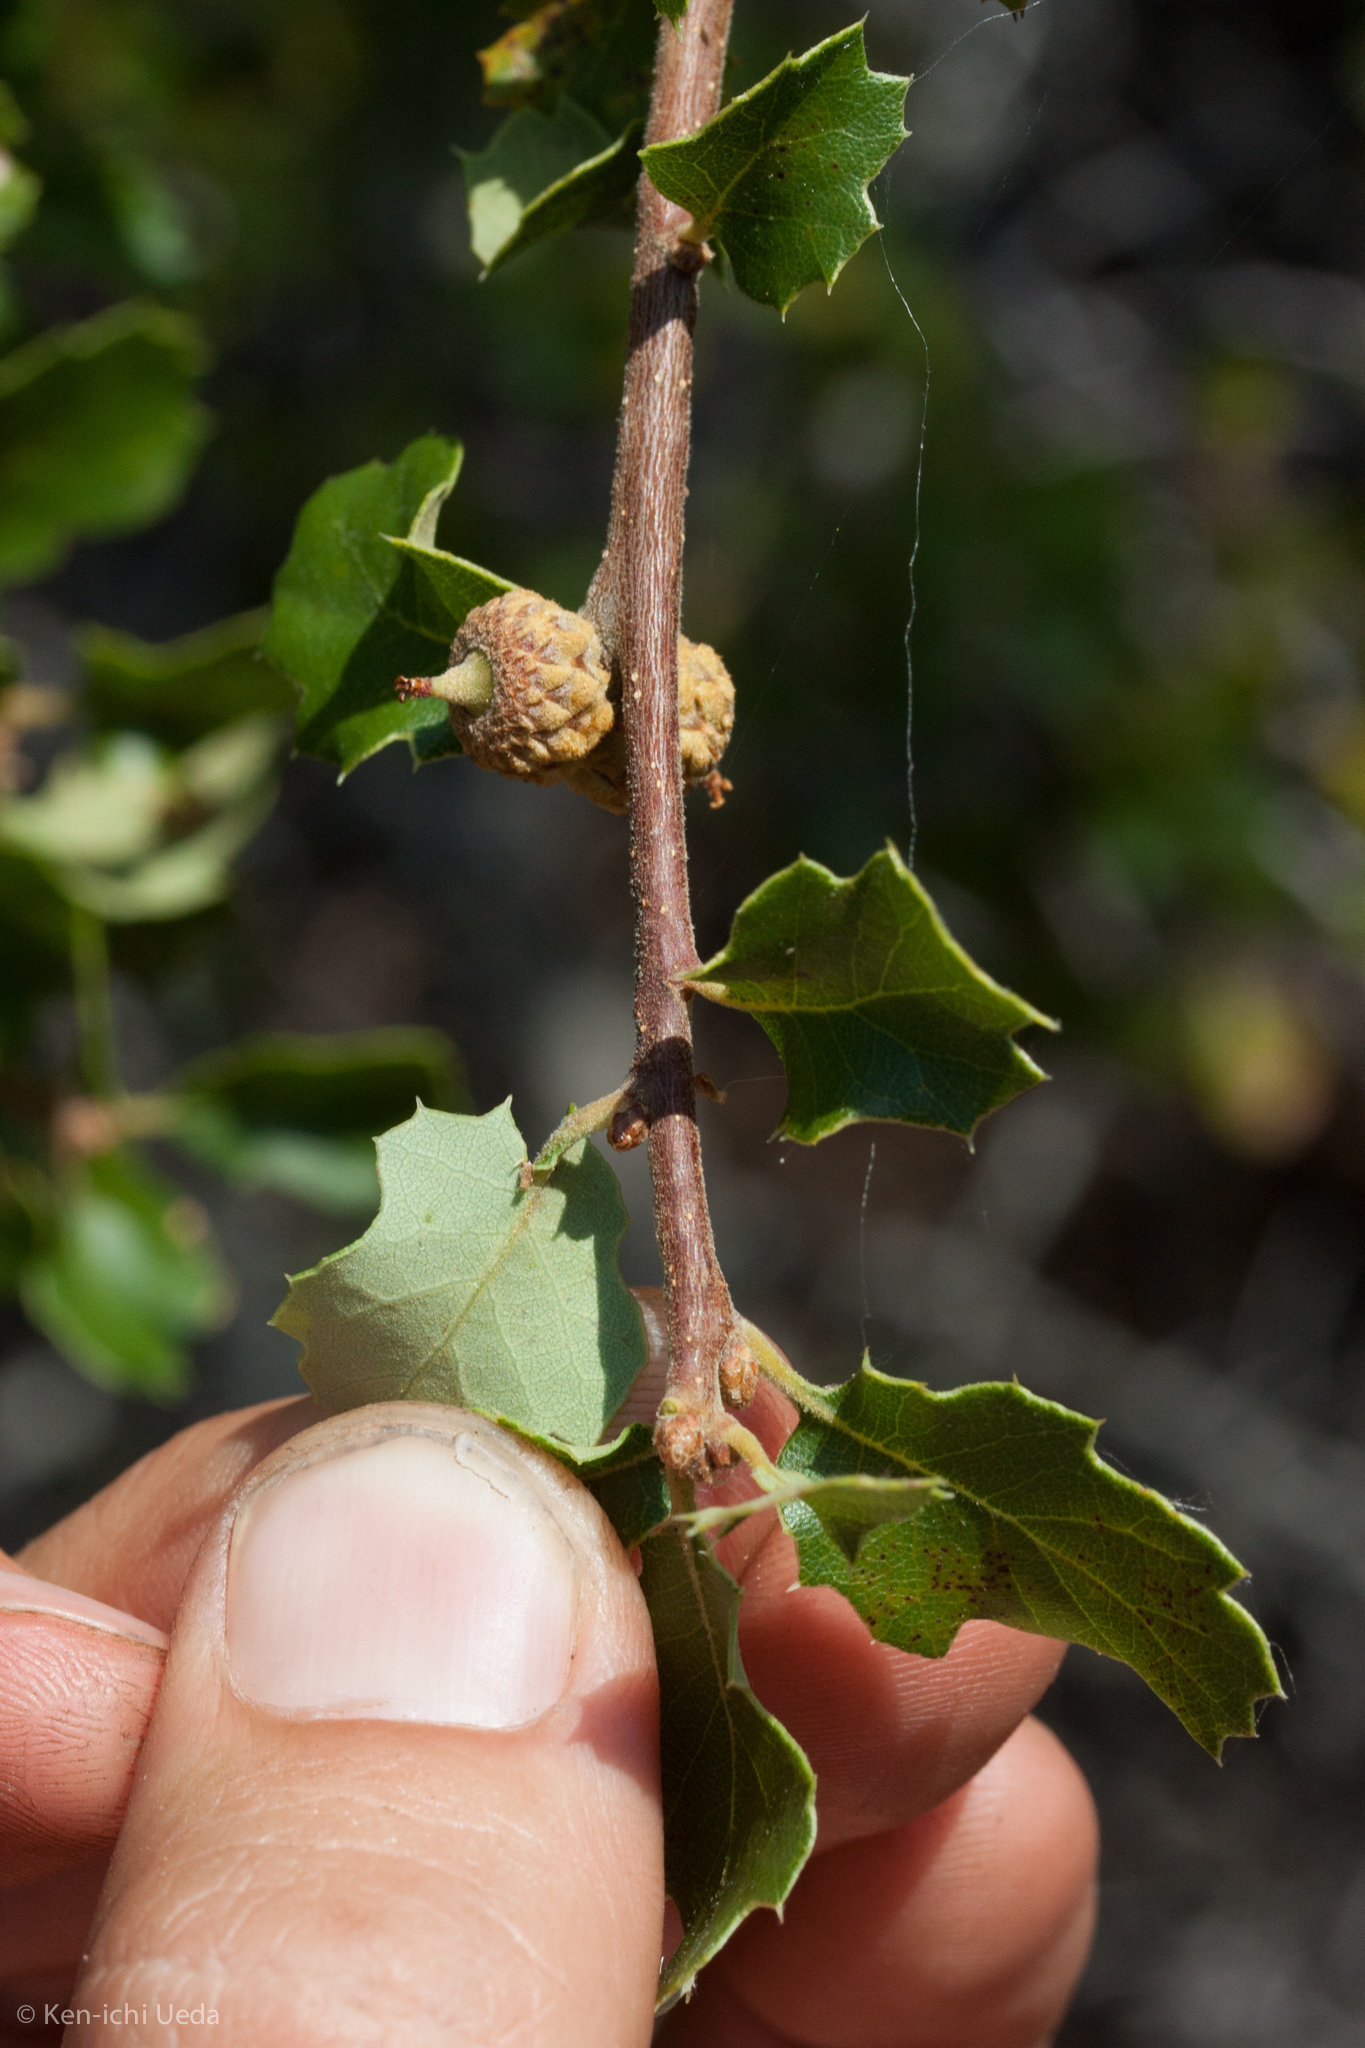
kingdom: Plantae
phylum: Tracheophyta
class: Magnoliopsida
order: Fagales
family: Fagaceae
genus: Quercus
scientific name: Quercus berberidifolia
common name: California scrub oak
